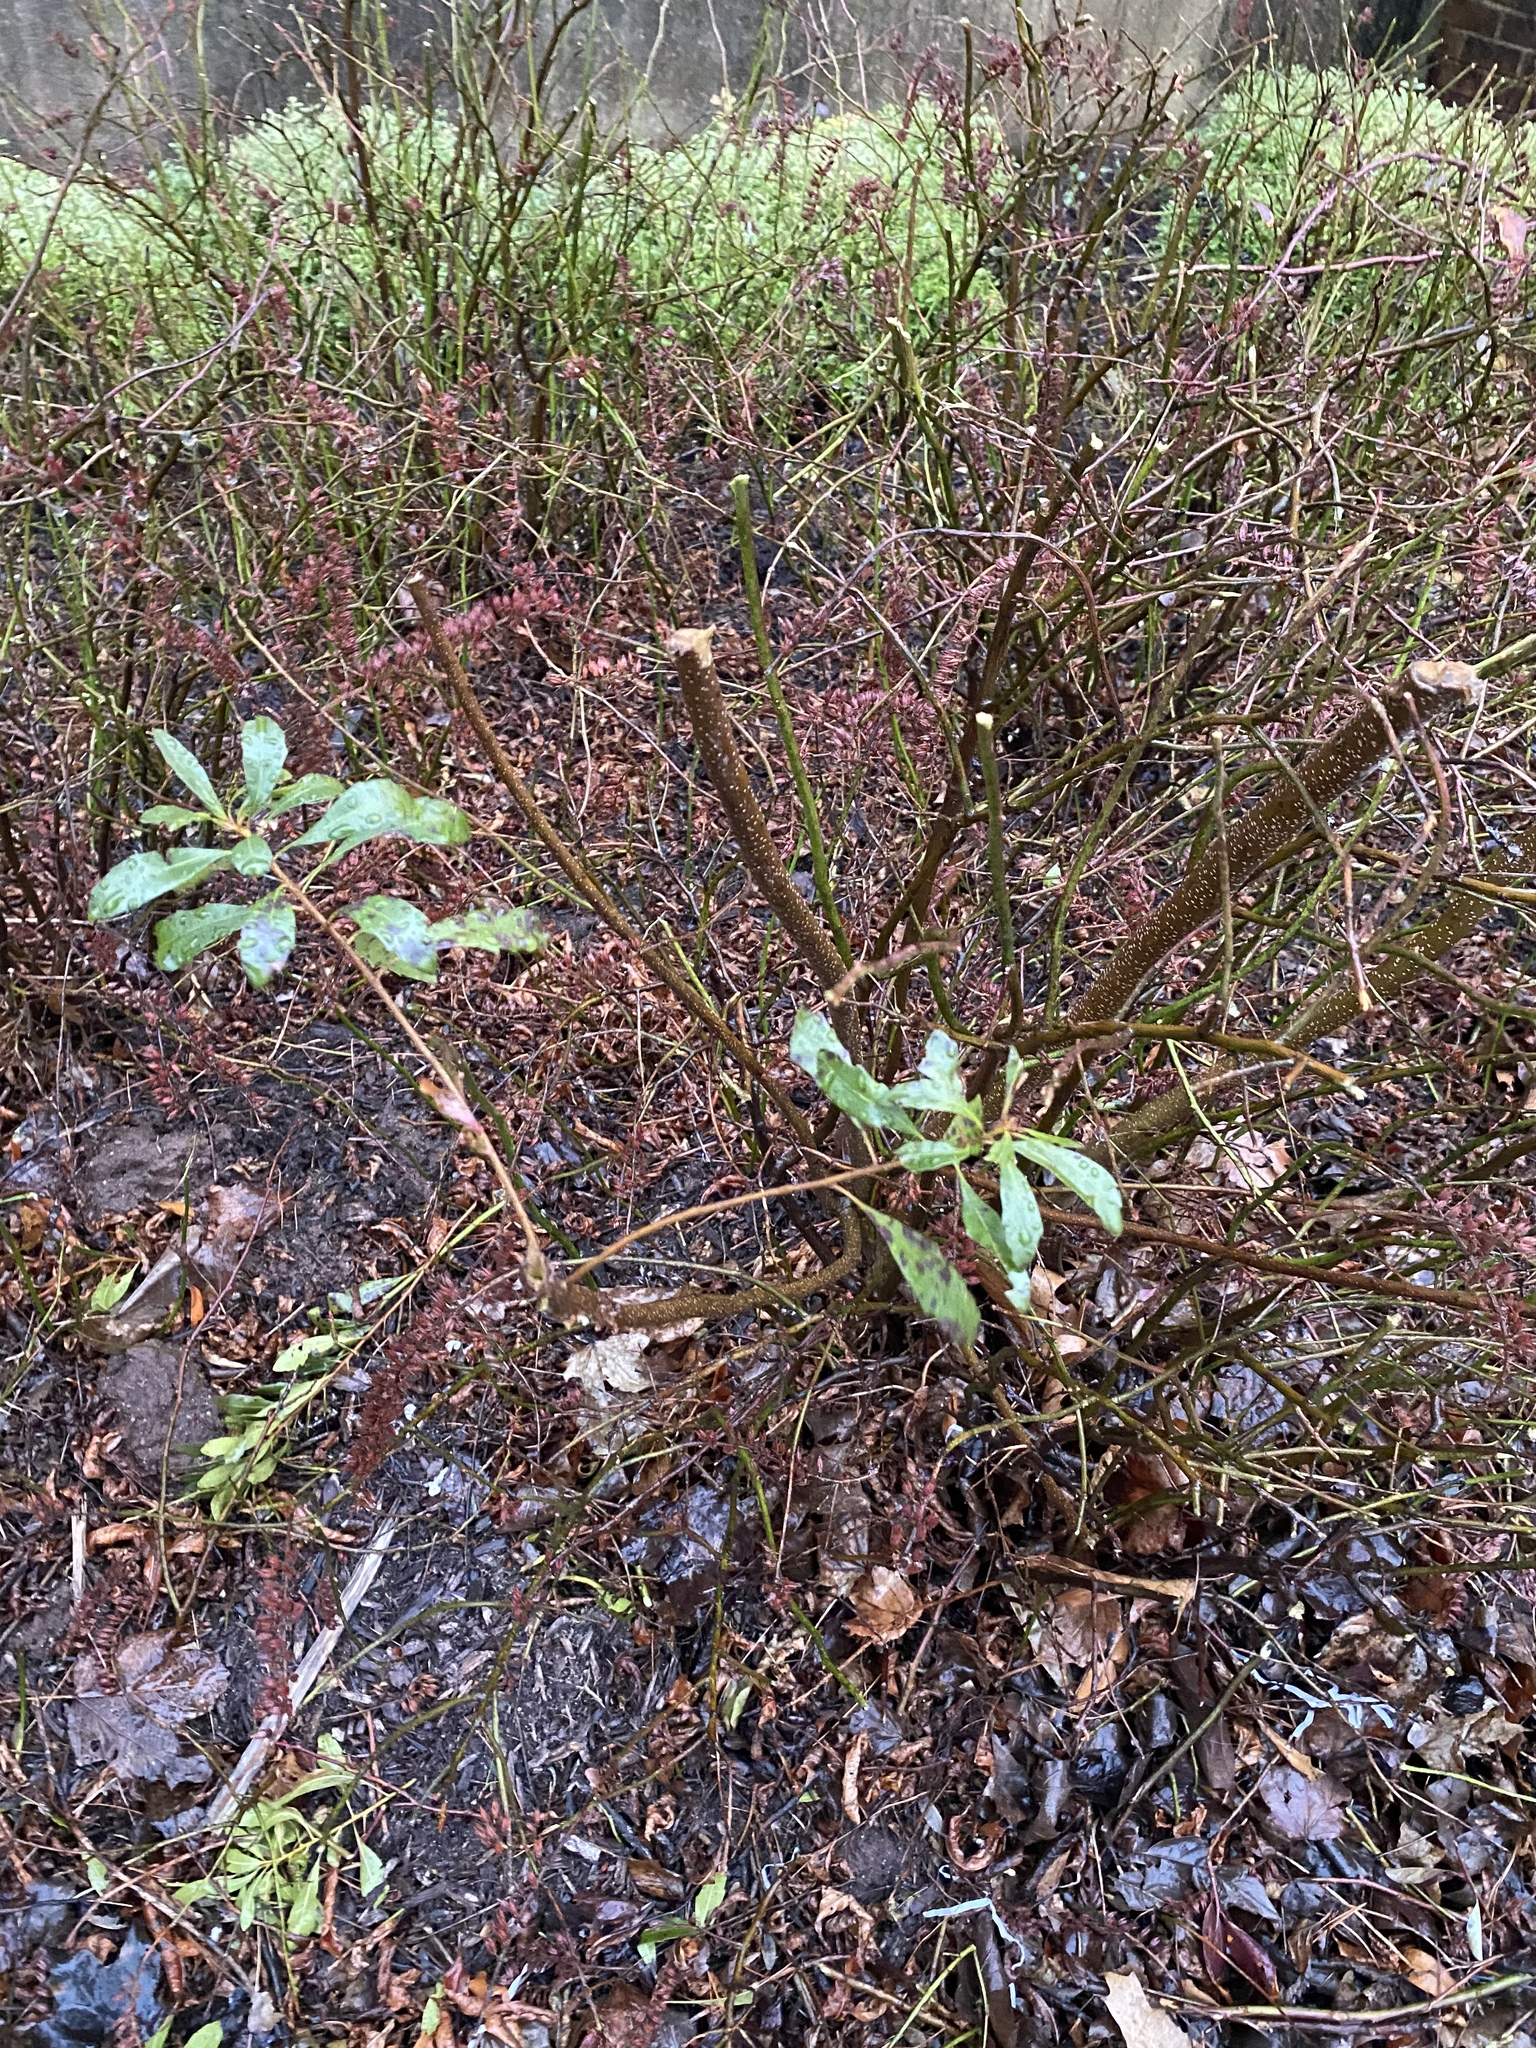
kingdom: Plantae
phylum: Tracheophyta
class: Magnoliopsida
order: Fagales
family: Myricaceae
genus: Morella
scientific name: Morella cerifera
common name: Wax myrtle
